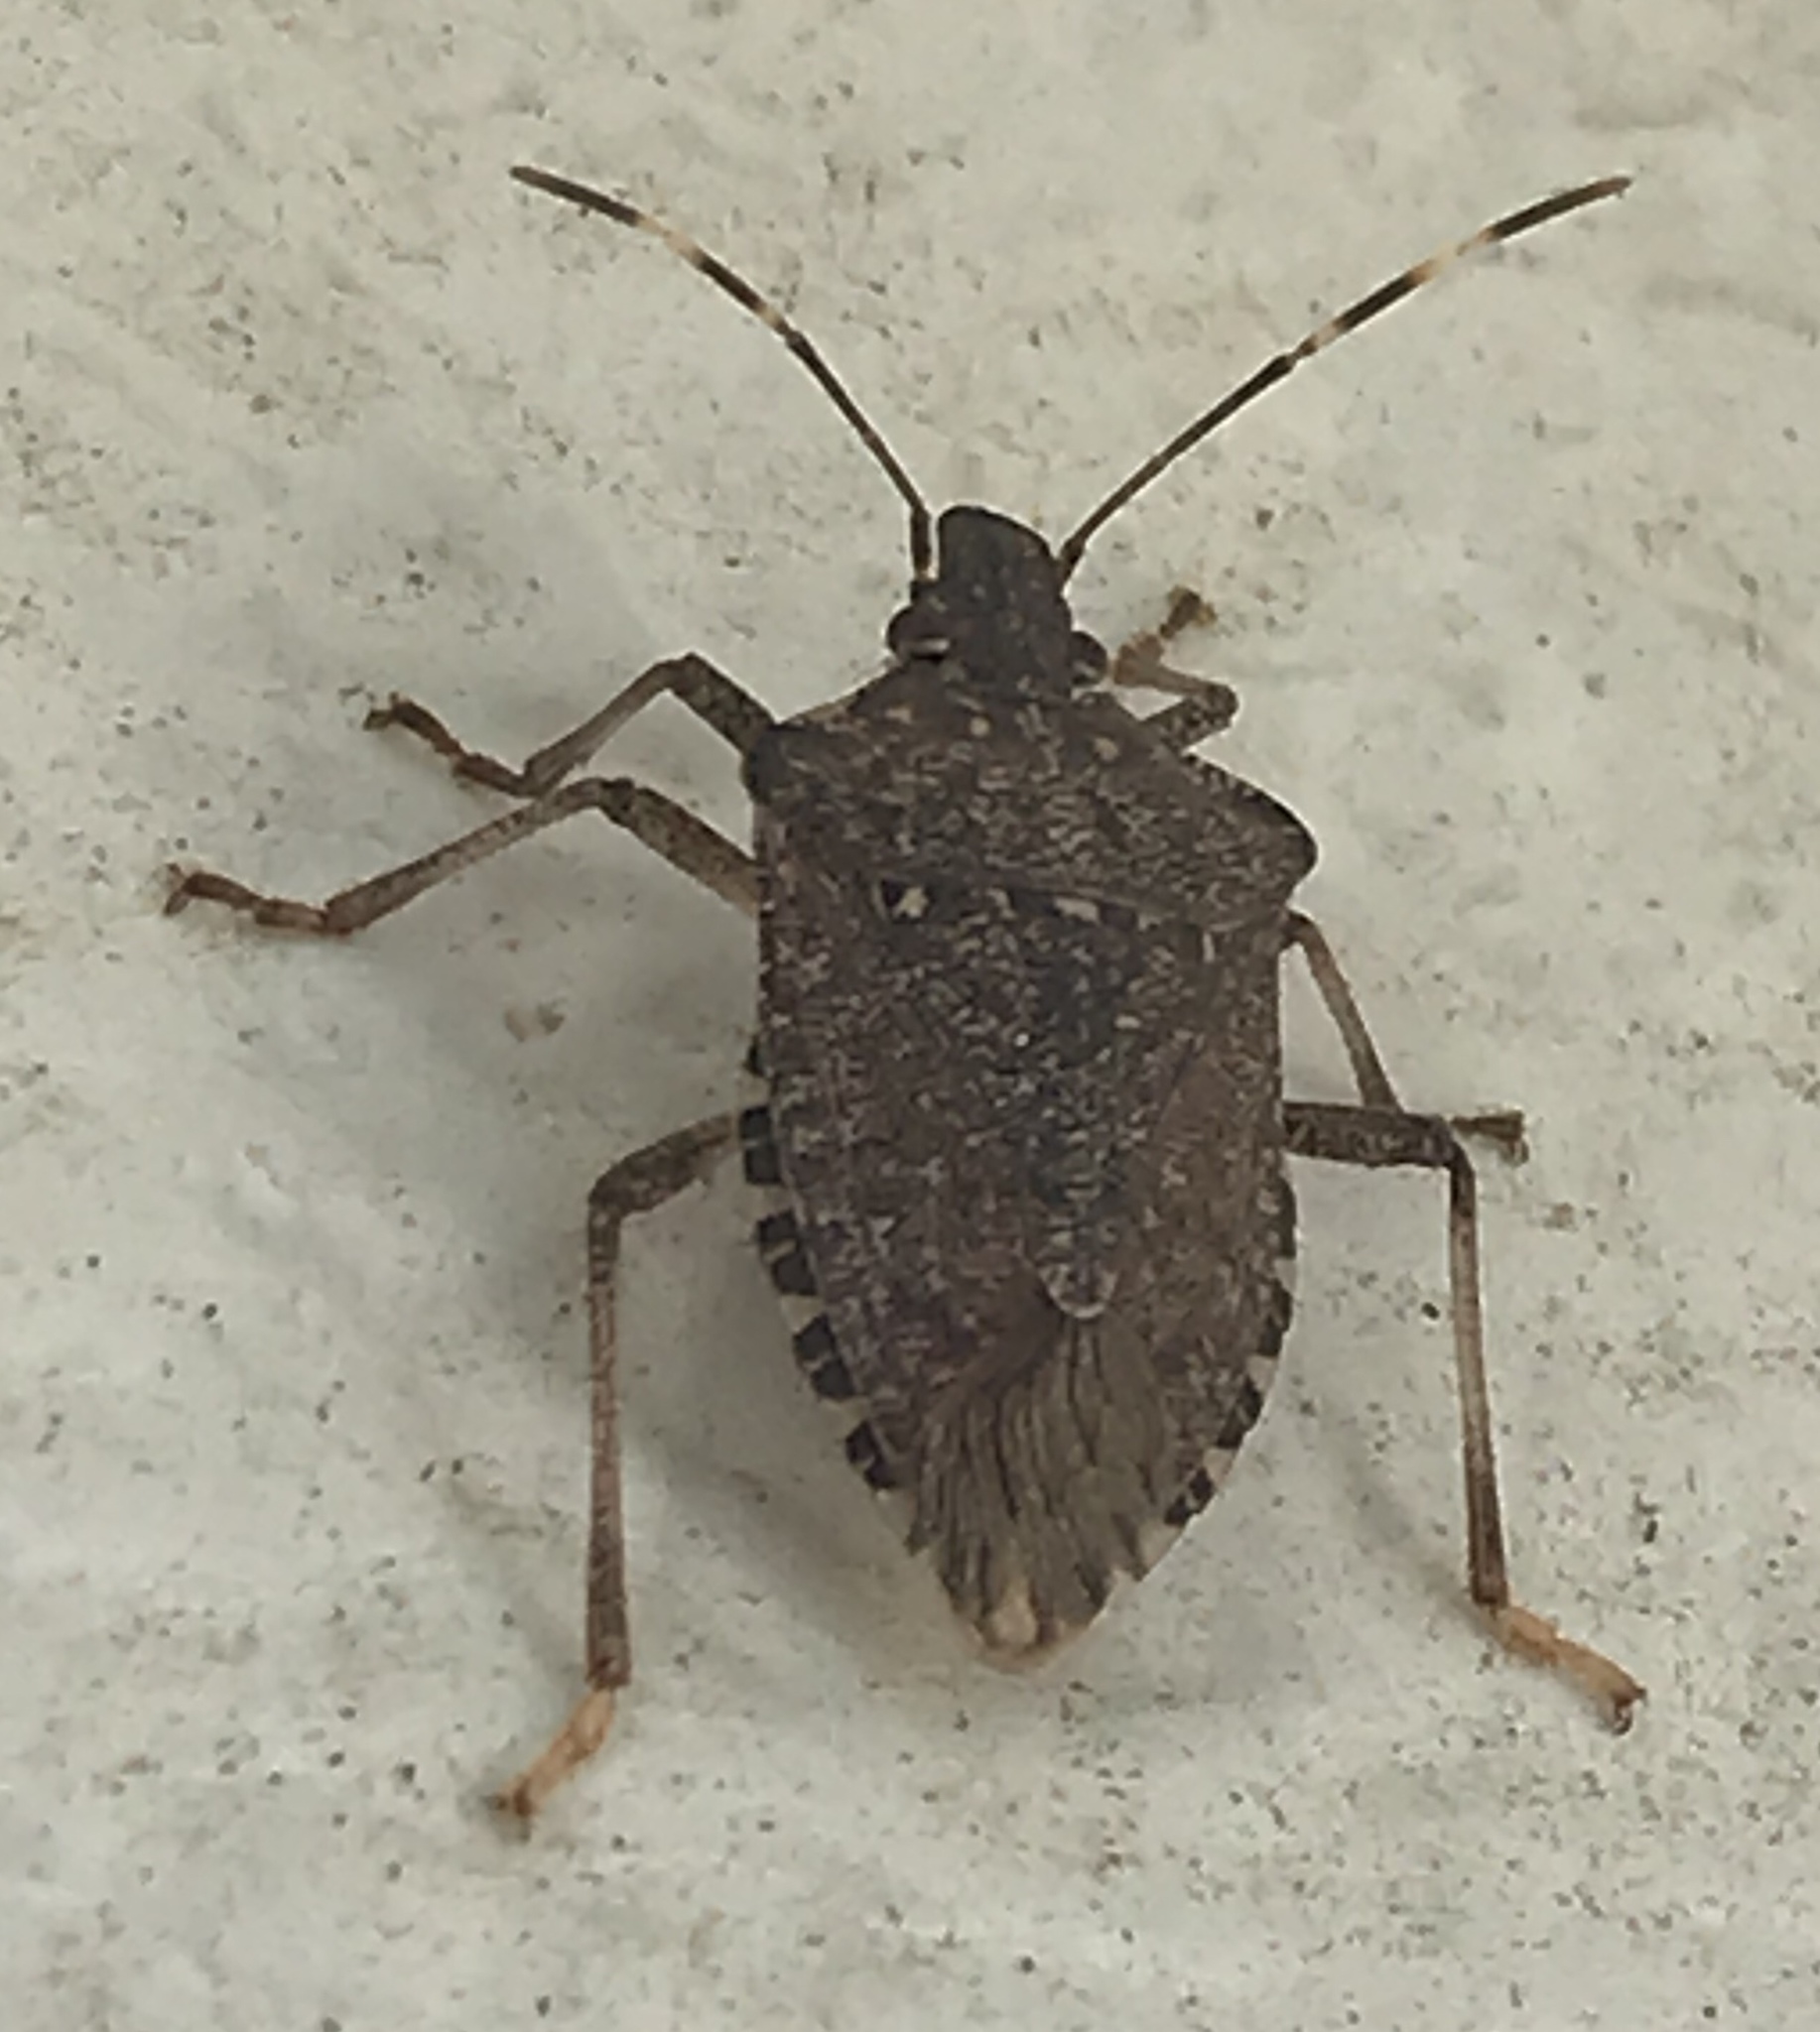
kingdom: Animalia
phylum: Arthropoda
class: Insecta
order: Hemiptera
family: Pentatomidae
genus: Halyomorpha
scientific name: Halyomorpha halys
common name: Brown marmorated stink bug
